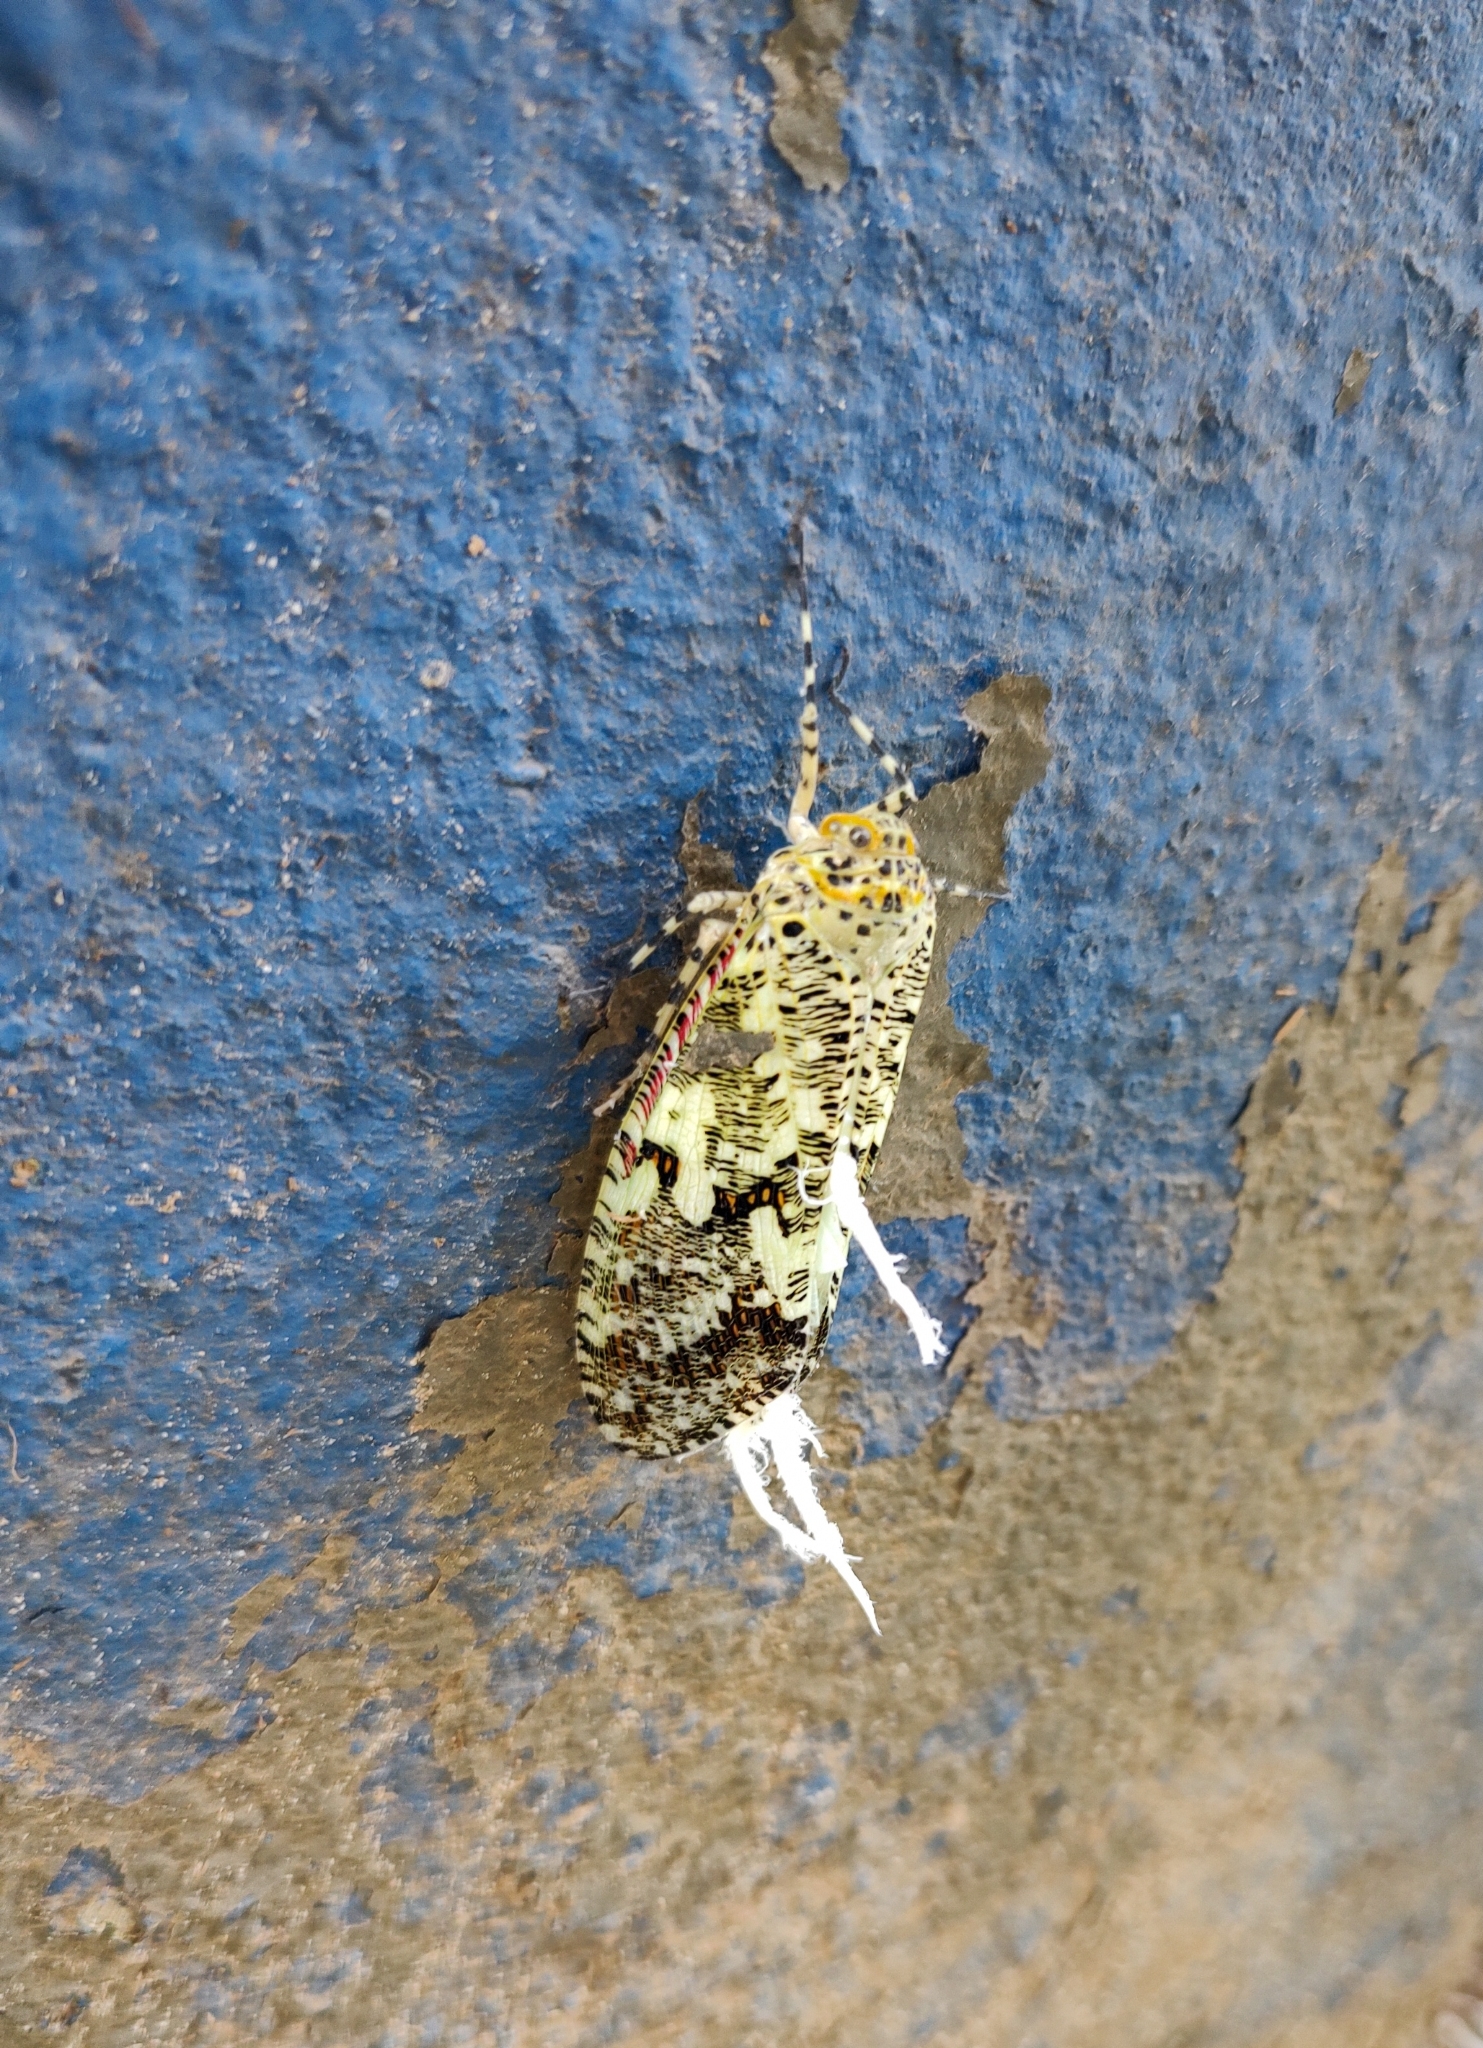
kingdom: Animalia
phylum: Arthropoda
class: Insecta
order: Hemiptera
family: Fulgoridae
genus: Phenax
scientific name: Phenax variegata
